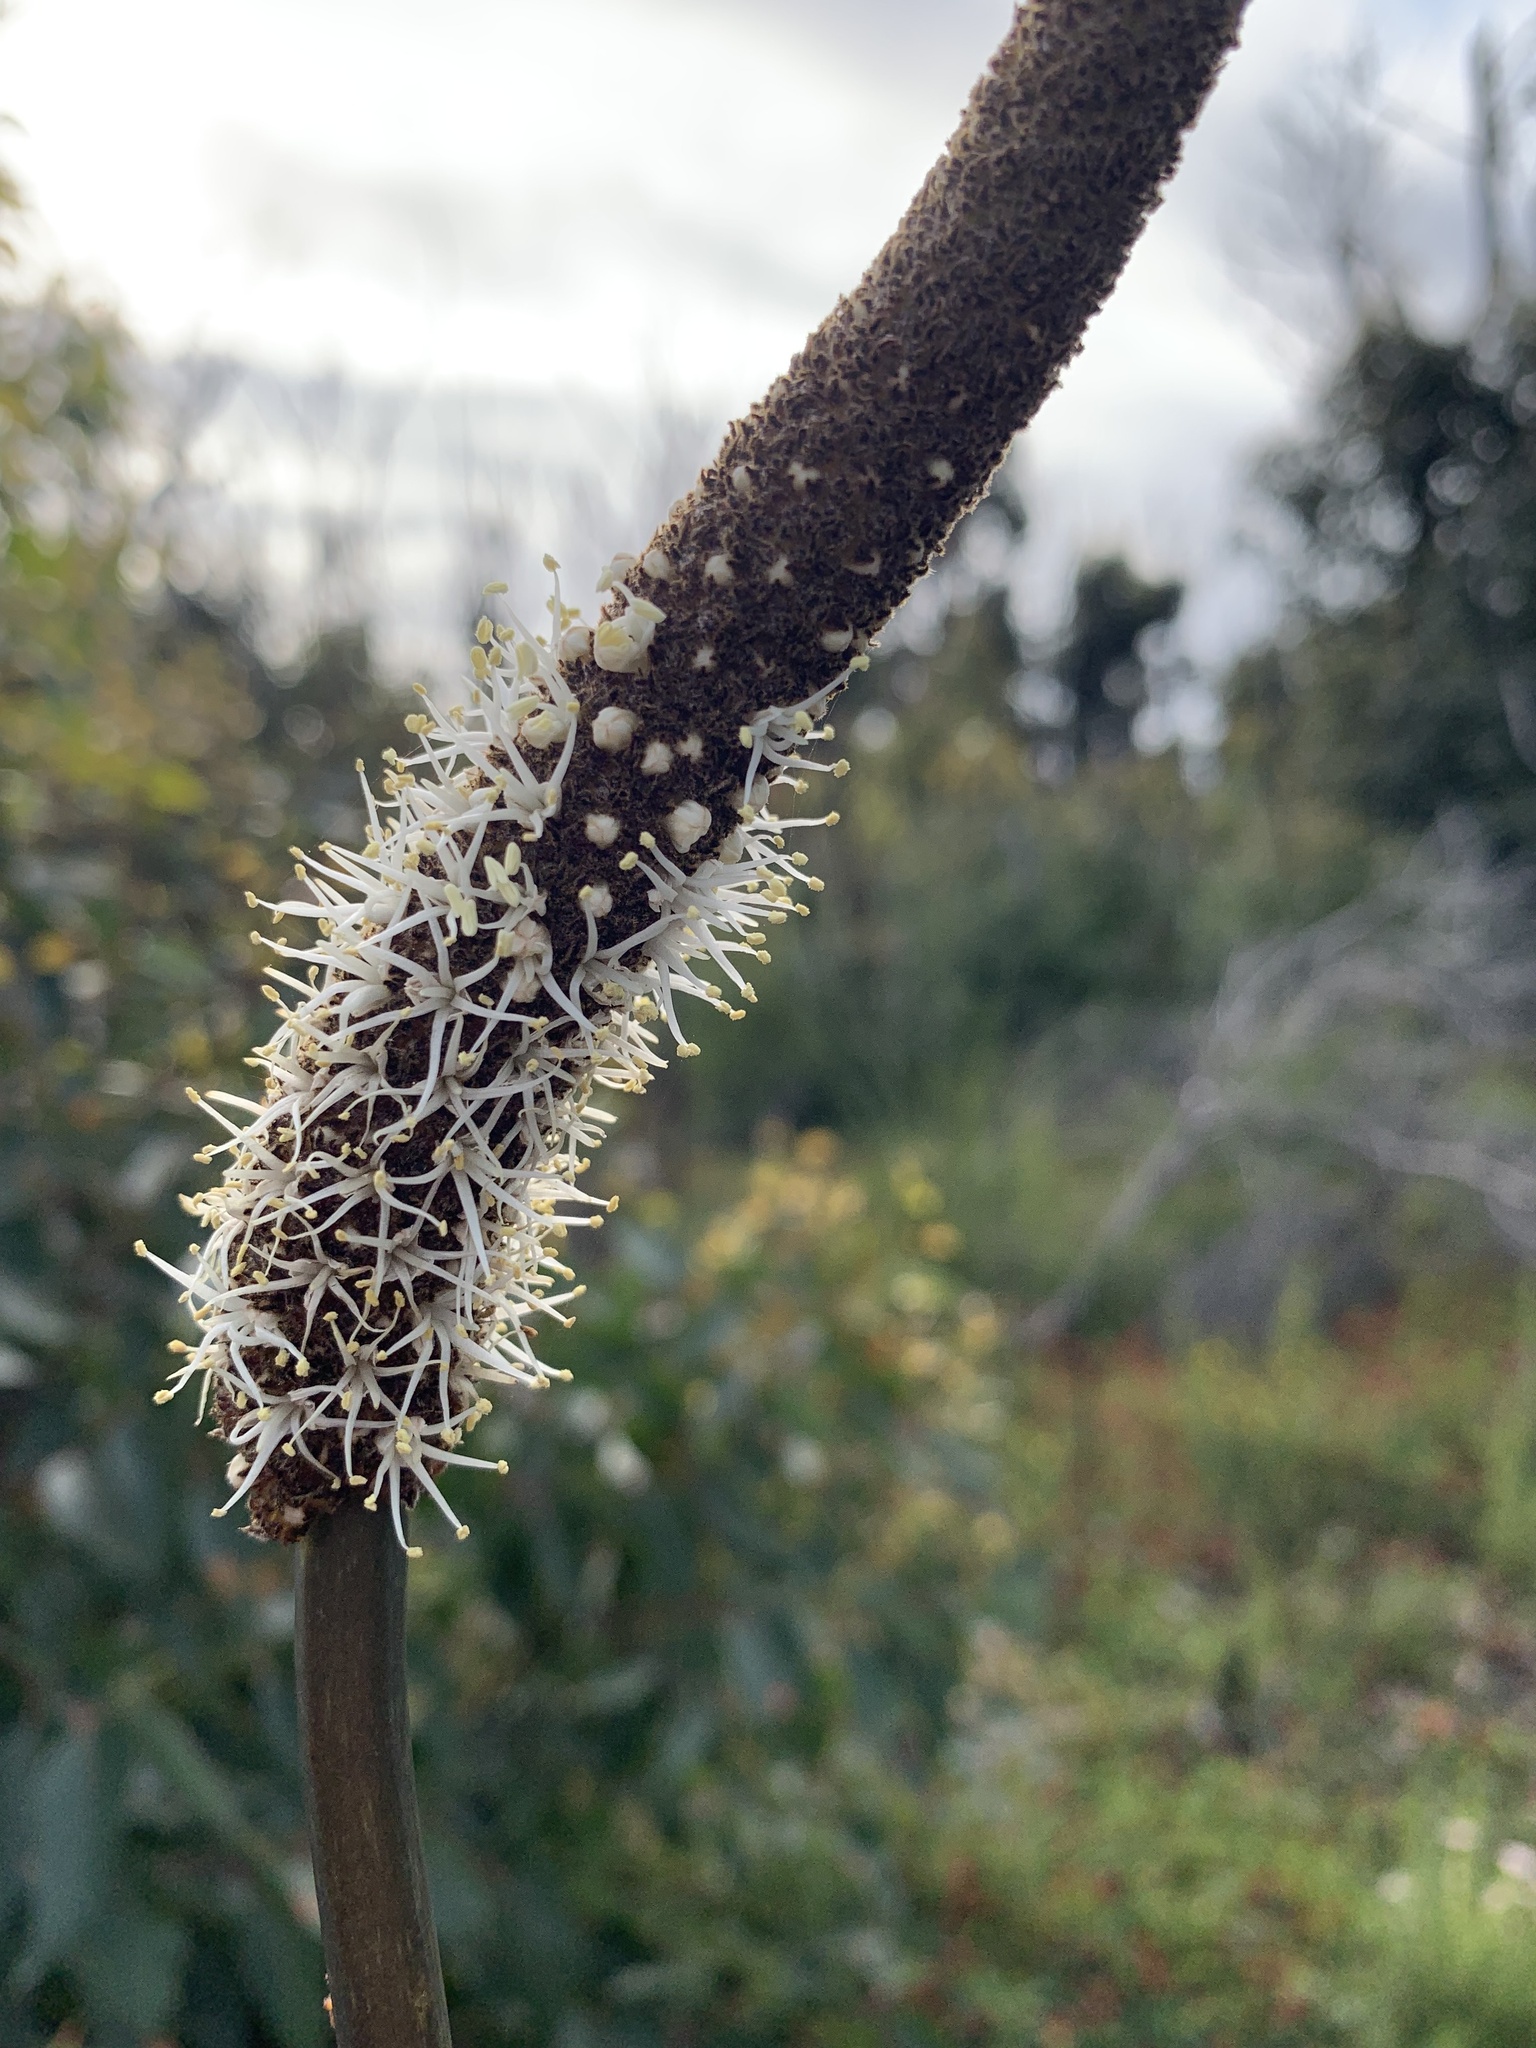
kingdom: Plantae
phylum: Tracheophyta
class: Liliopsida
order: Asparagales
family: Asphodelaceae
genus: Xanthorrhoea
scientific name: Xanthorrhoea gracilis
